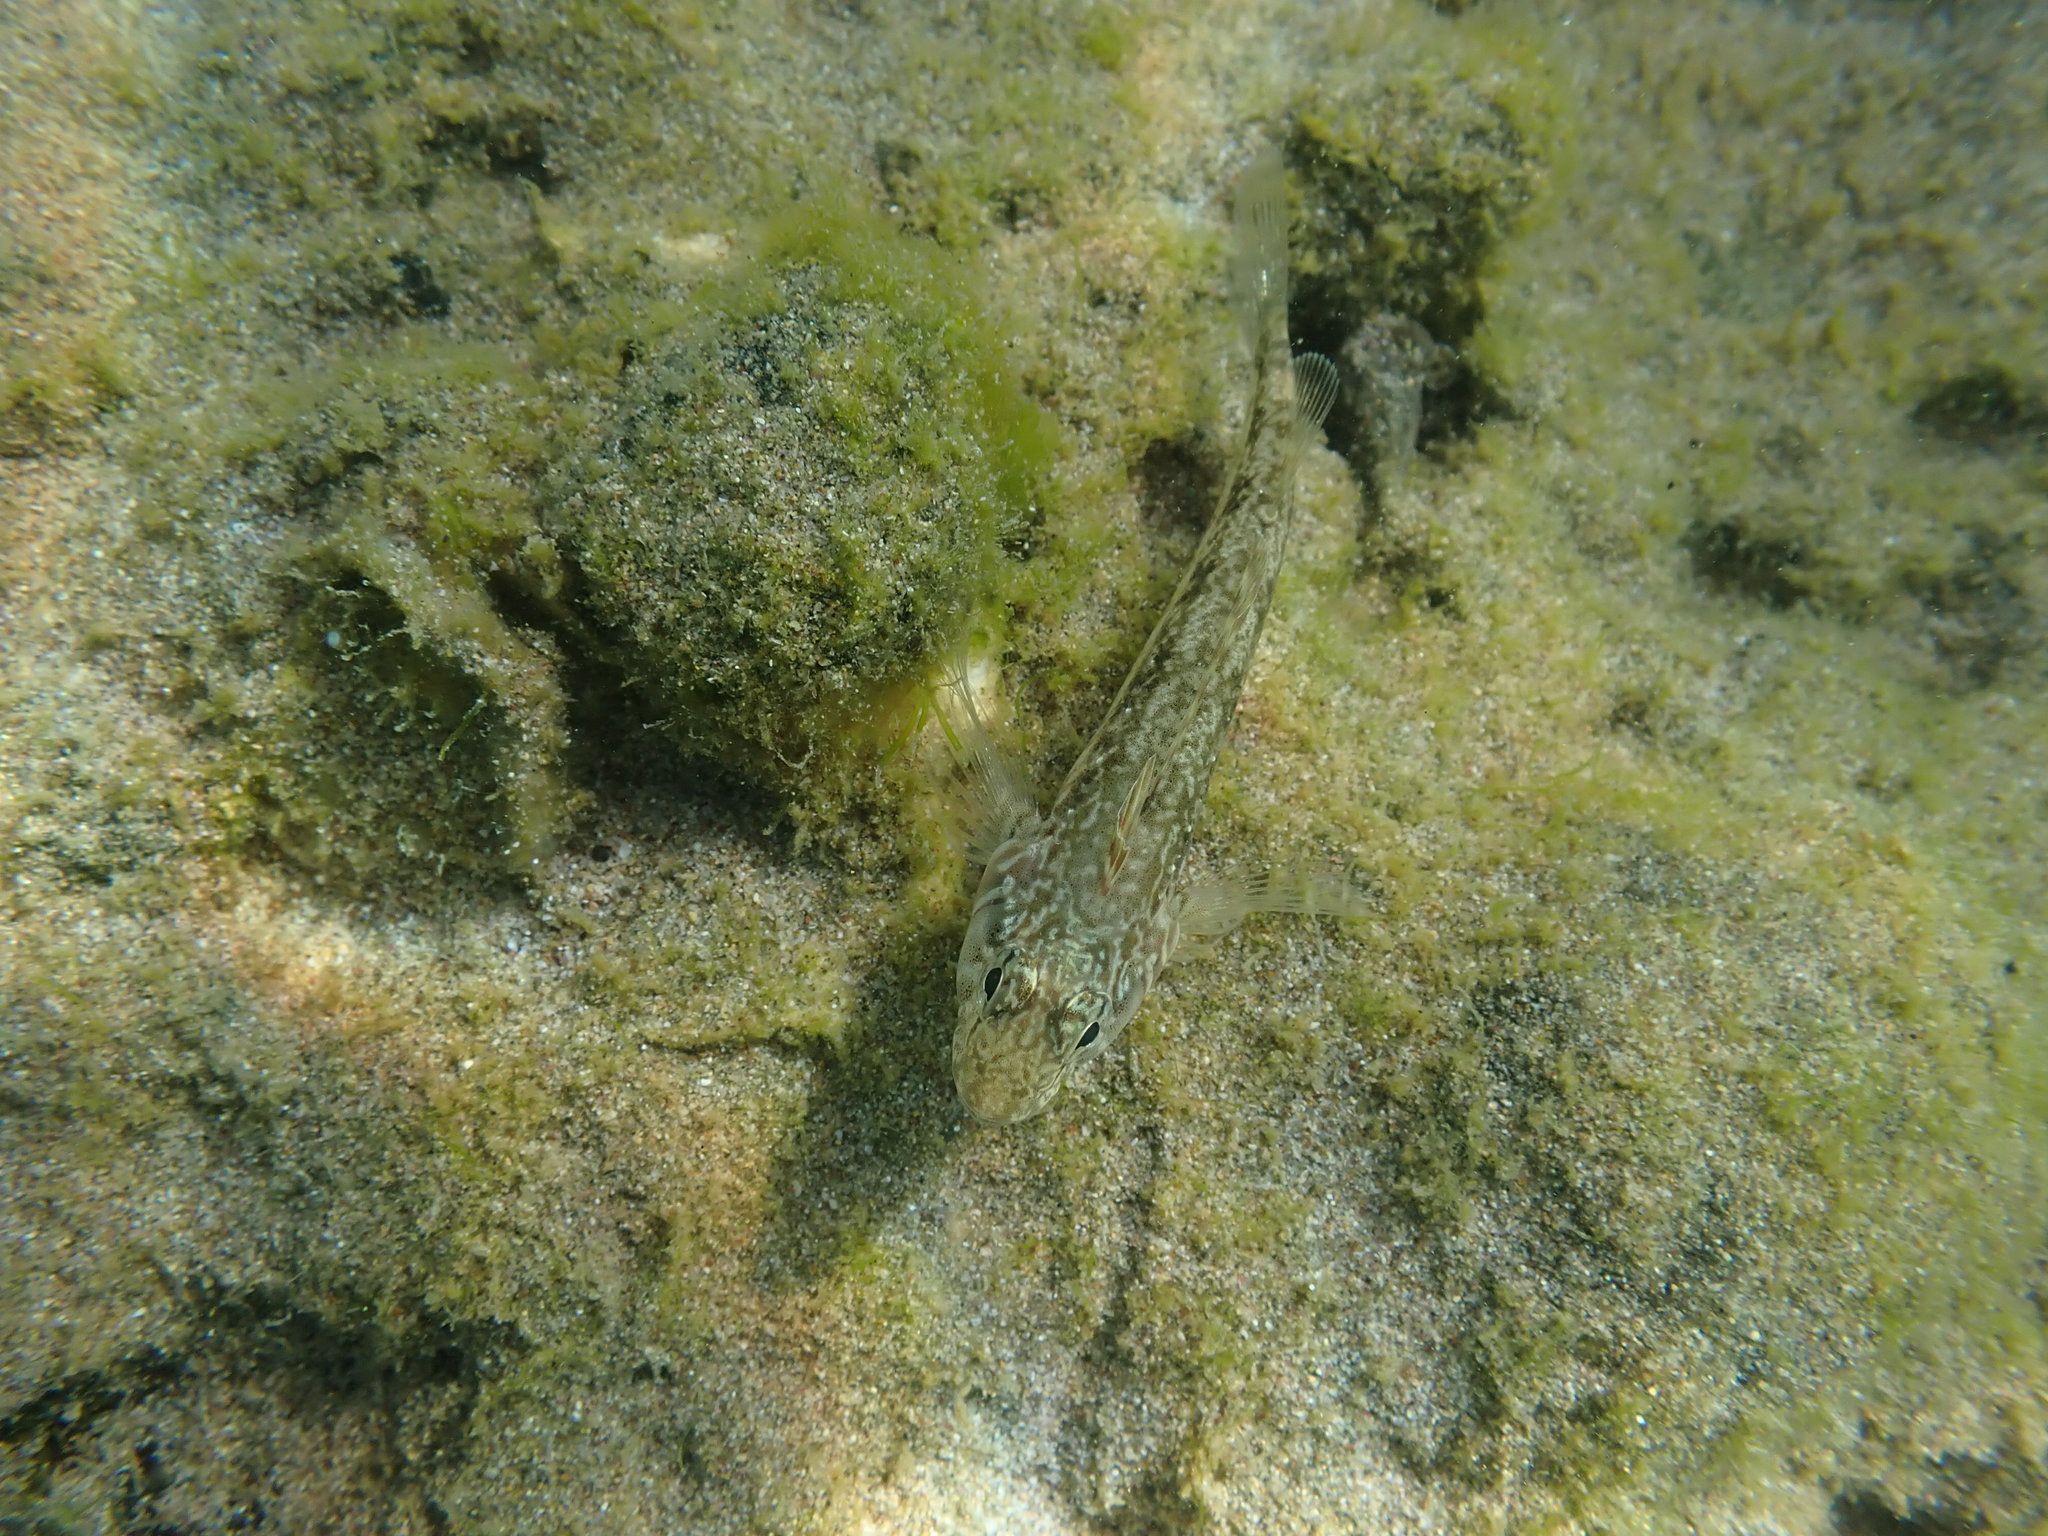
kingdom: Animalia
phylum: Chordata
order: Perciformes
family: Tripterygiidae
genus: Forsterygion
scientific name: Forsterygion nigripenne
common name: Cockabully
